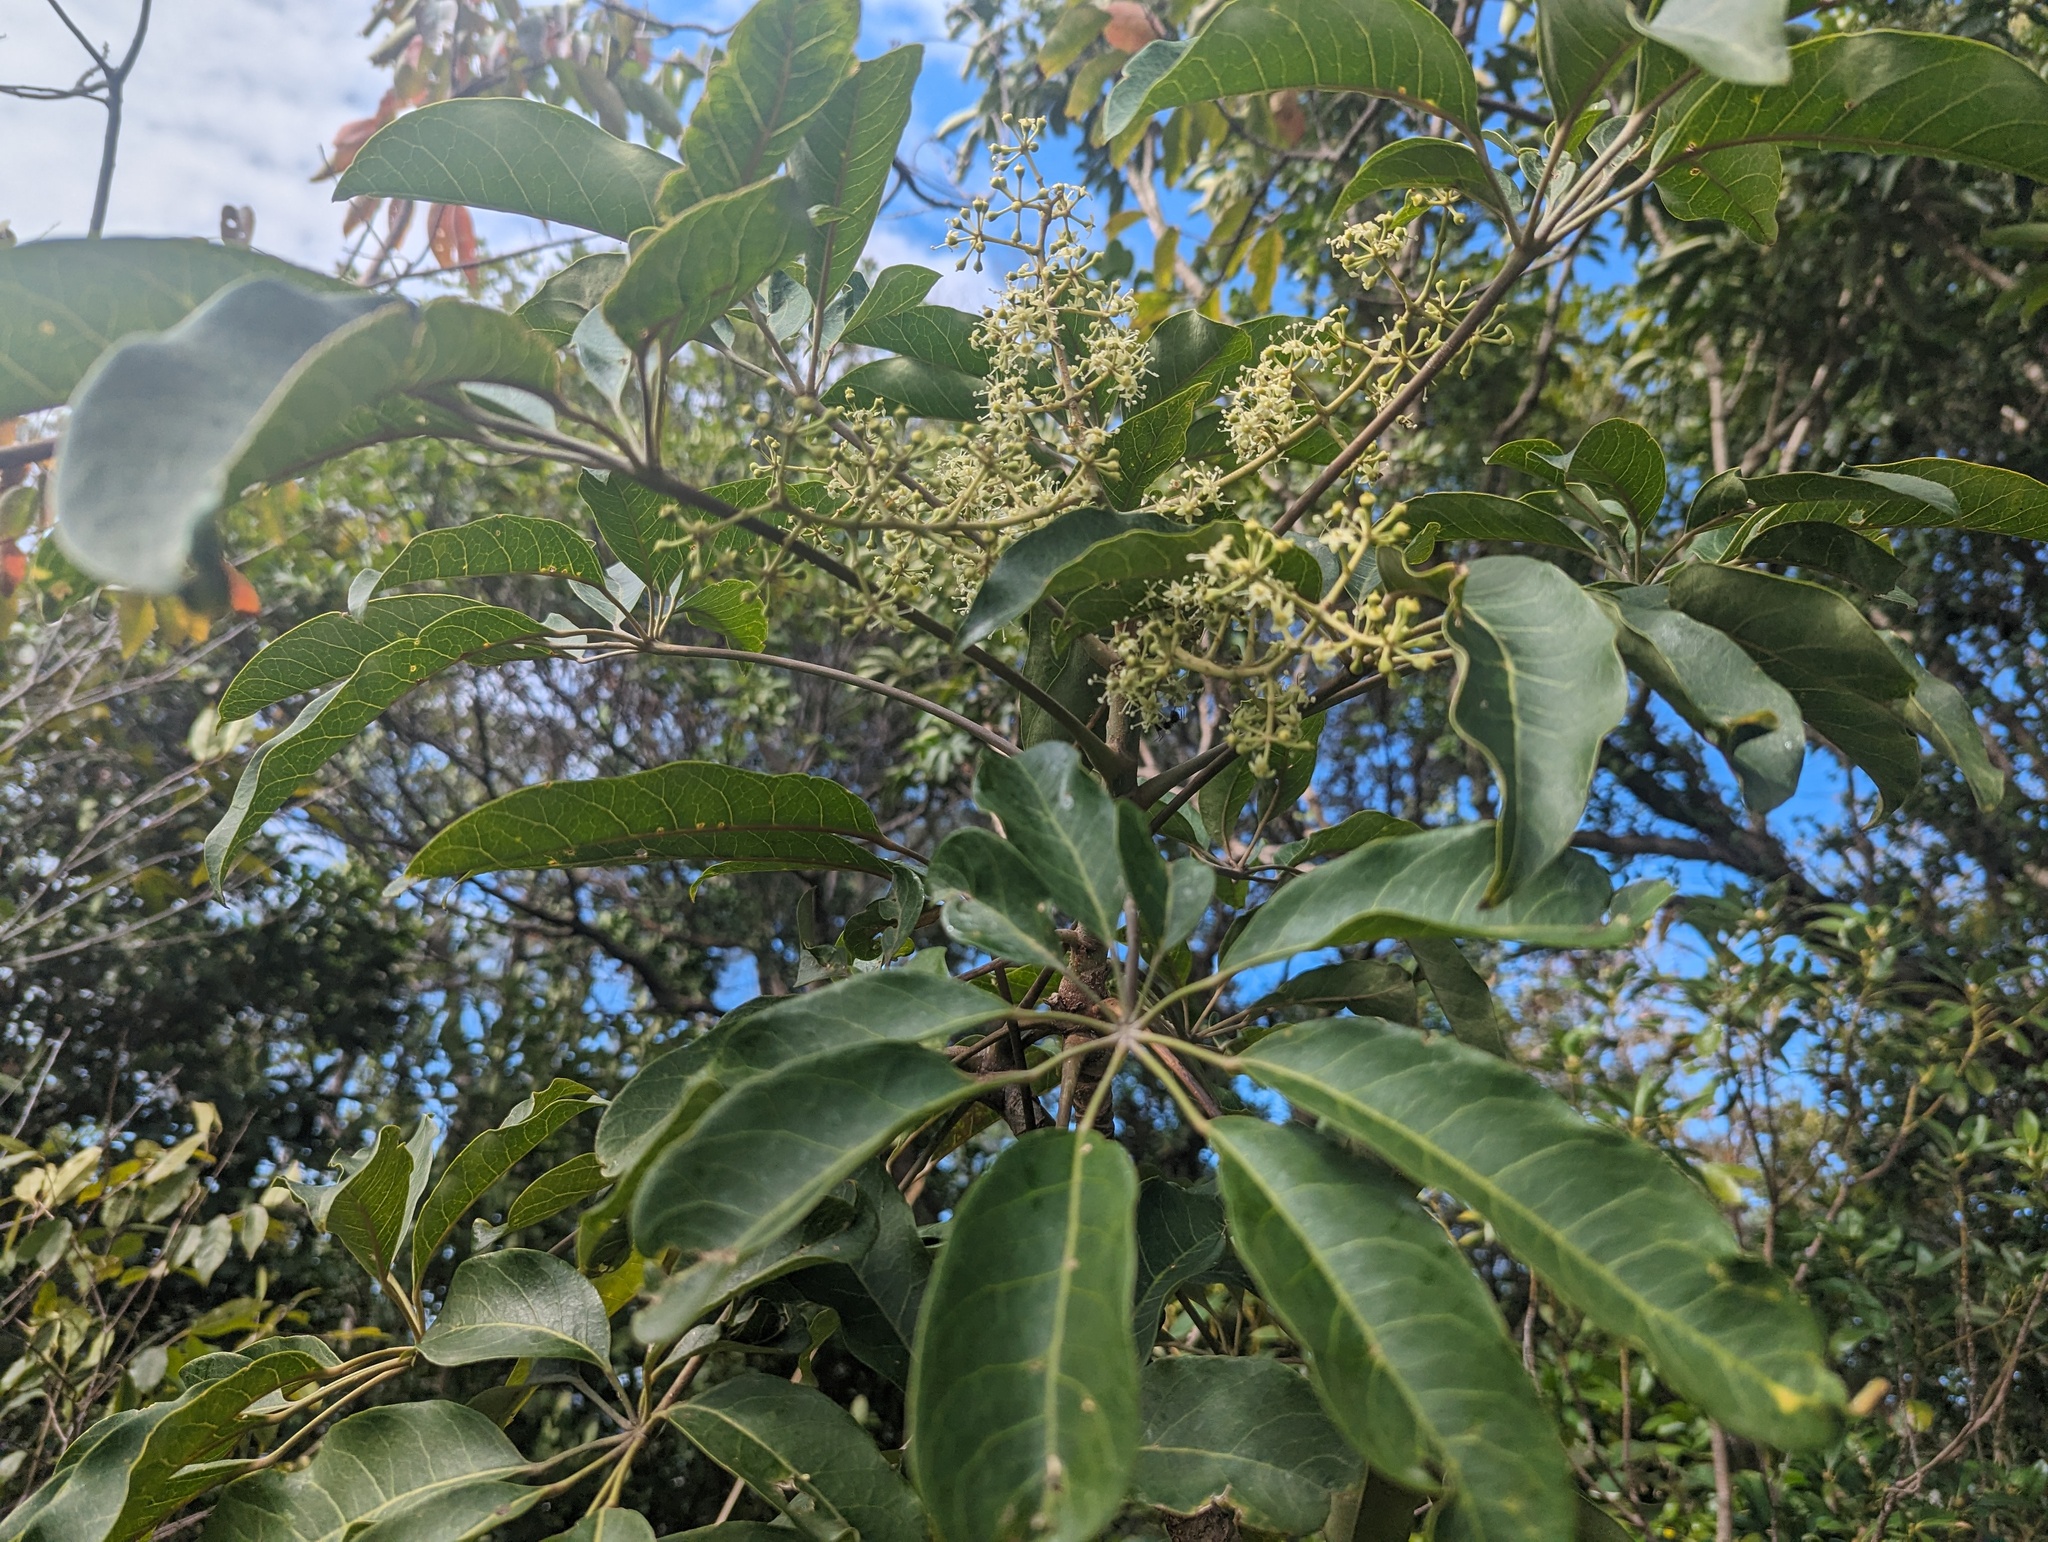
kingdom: Plantae
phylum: Tracheophyta
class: Magnoliopsida
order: Apiales
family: Araliaceae
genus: Heptapleurum
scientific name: Heptapleurum heptaphyllum
